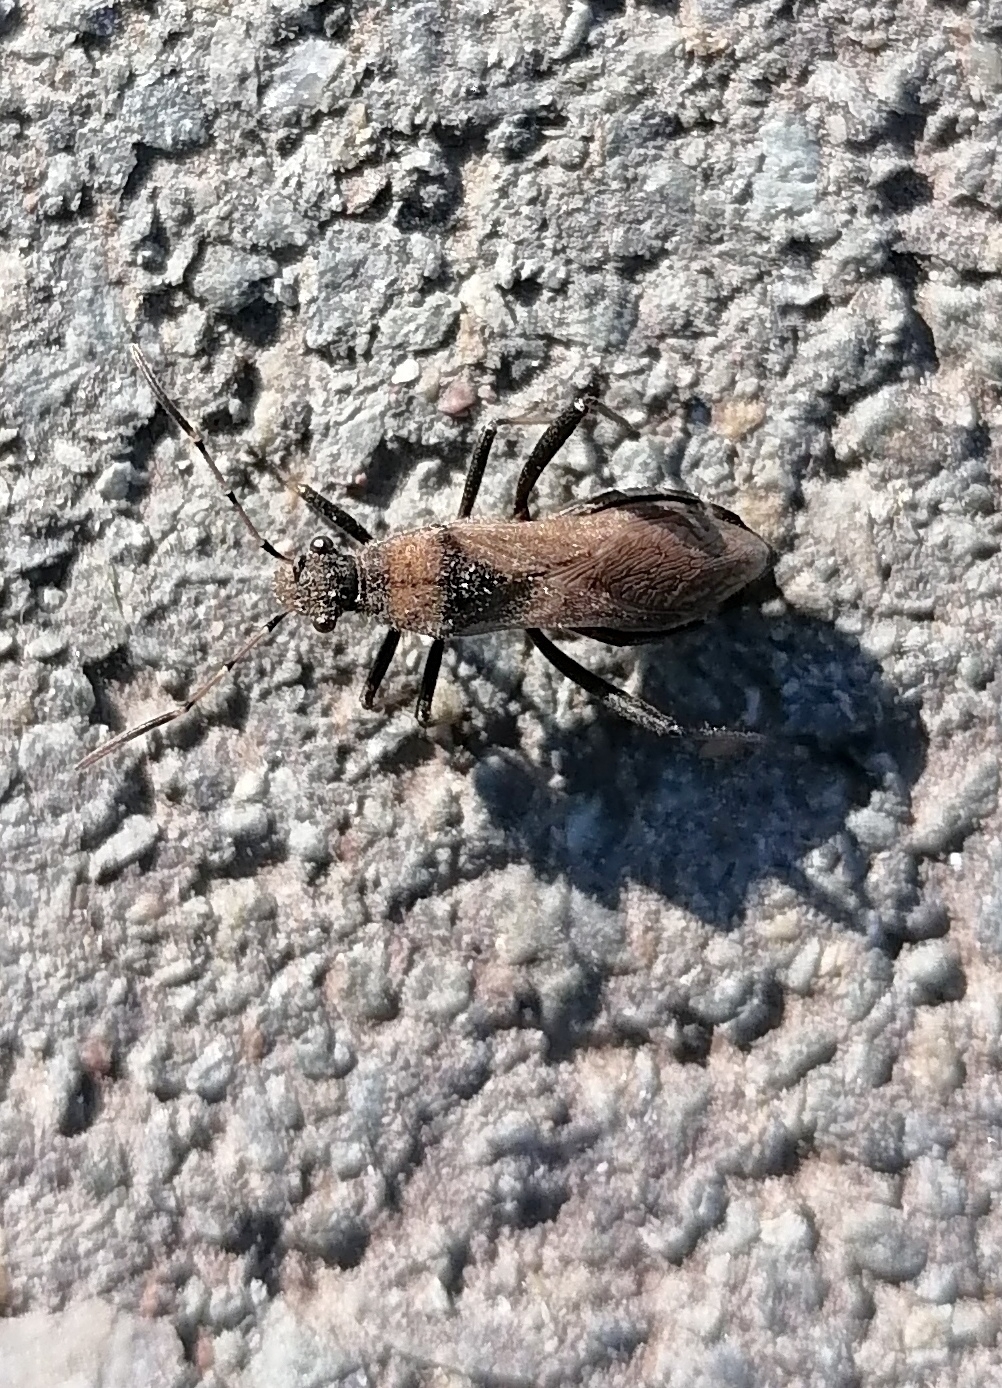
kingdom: Animalia
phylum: Arthropoda
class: Insecta
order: Hemiptera
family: Alydidae
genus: Alydus
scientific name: Alydus calcaratus
